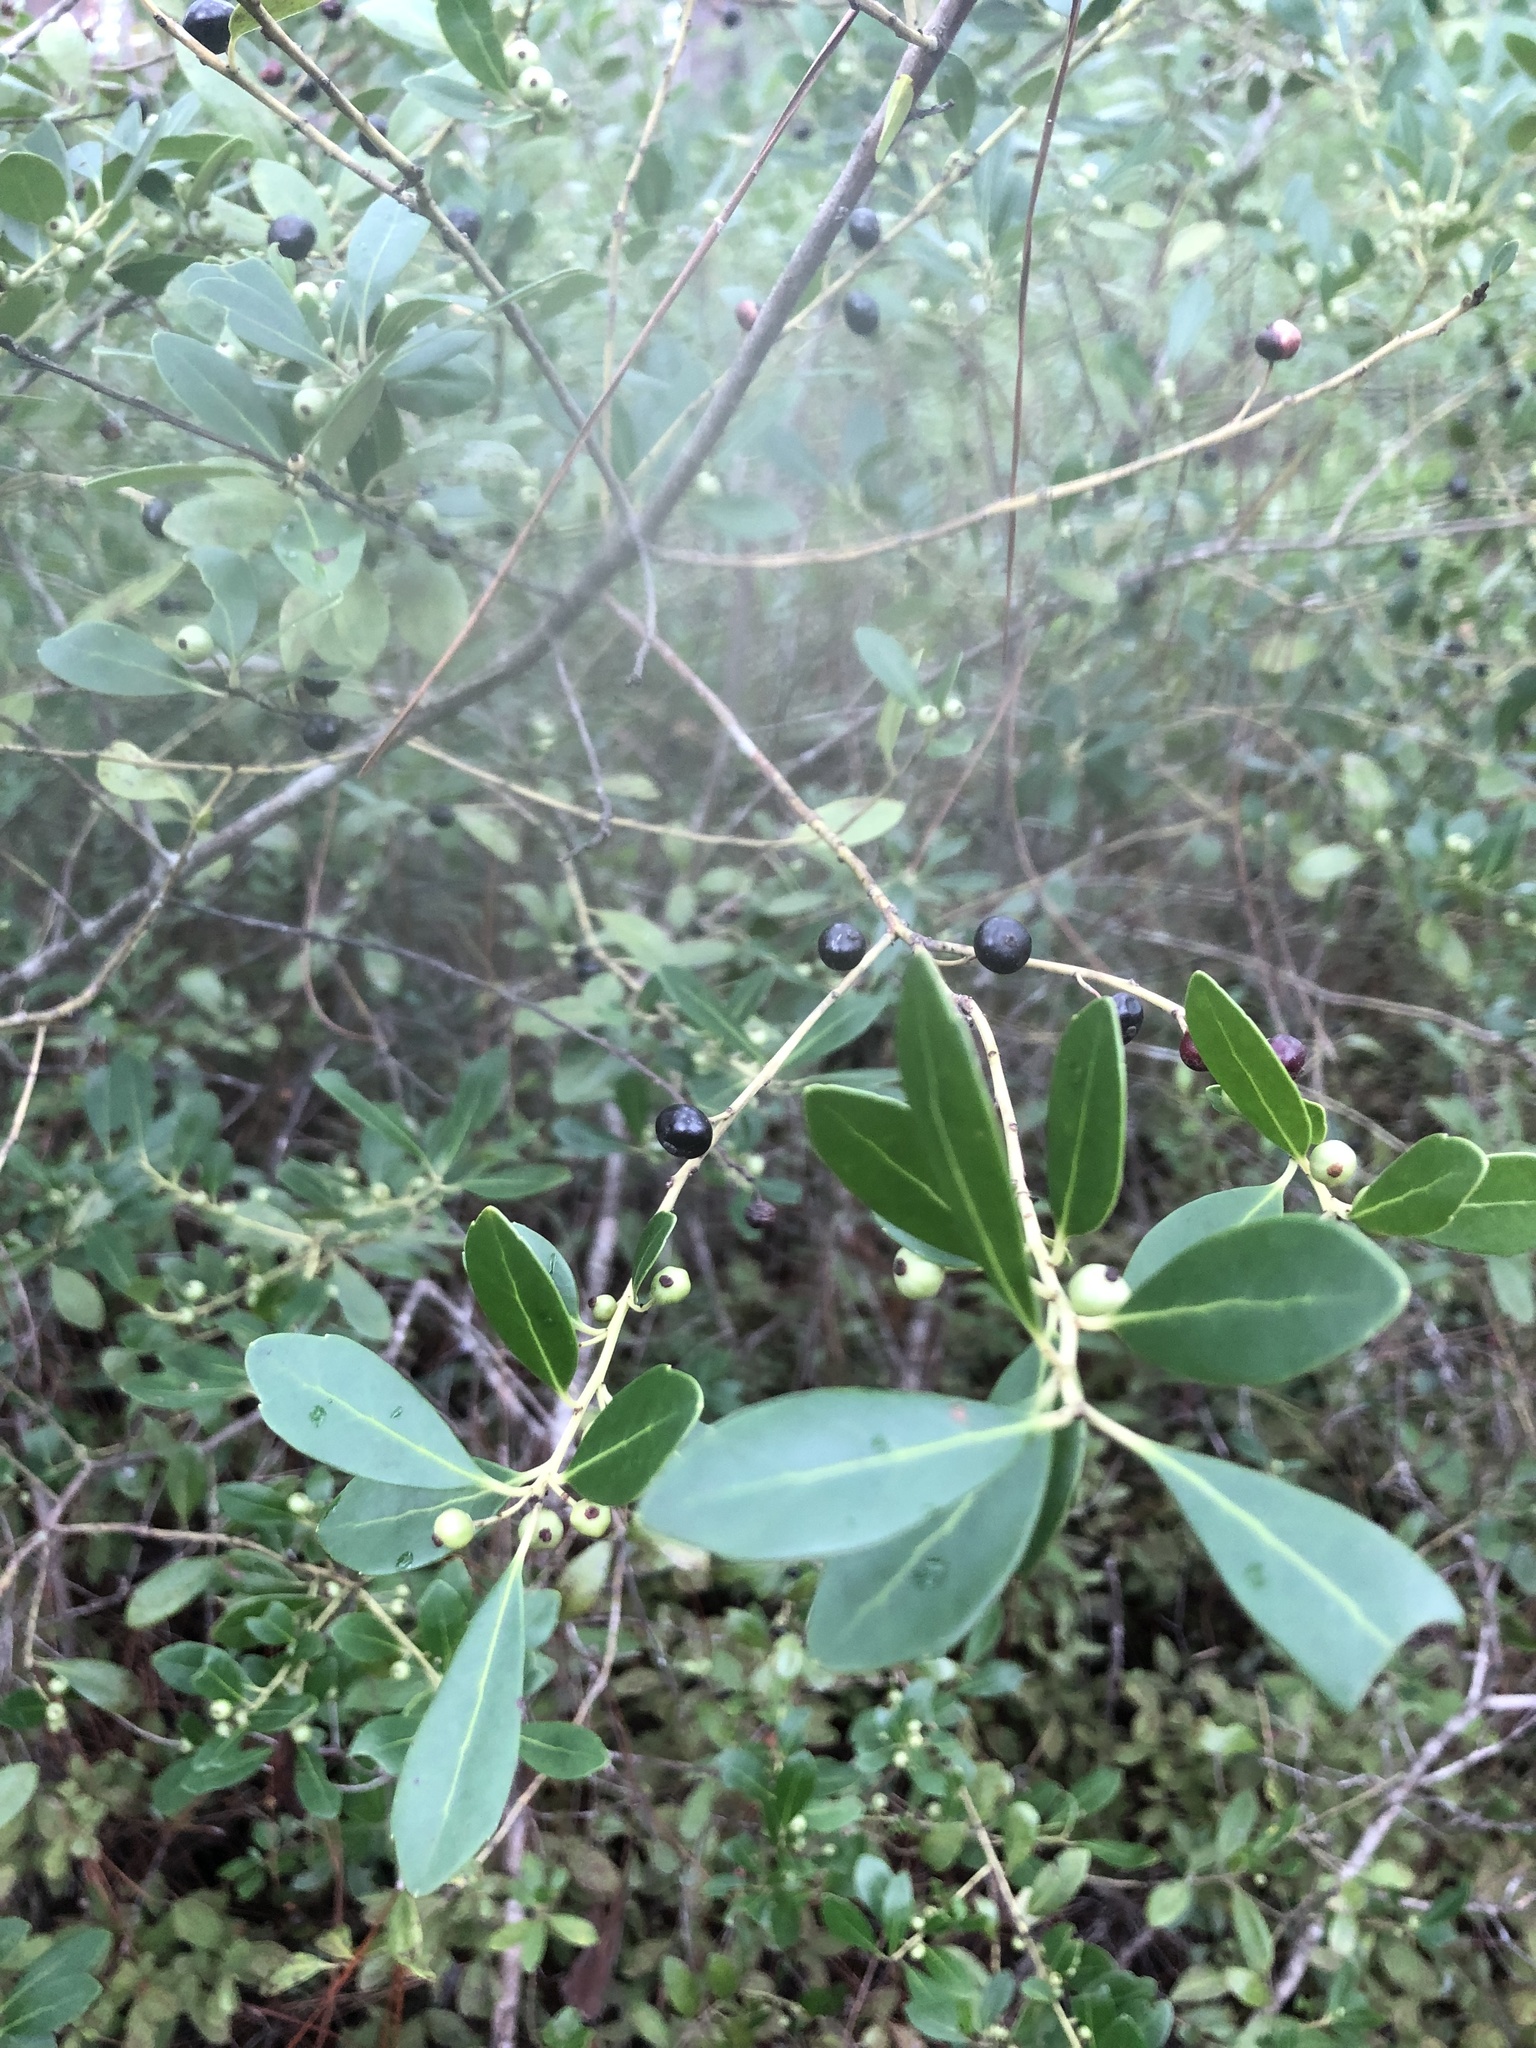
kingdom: Plantae
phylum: Tracheophyta
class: Magnoliopsida
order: Aquifoliales
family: Aquifoliaceae
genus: Ilex
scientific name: Ilex glabra
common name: Bitter gallberry
